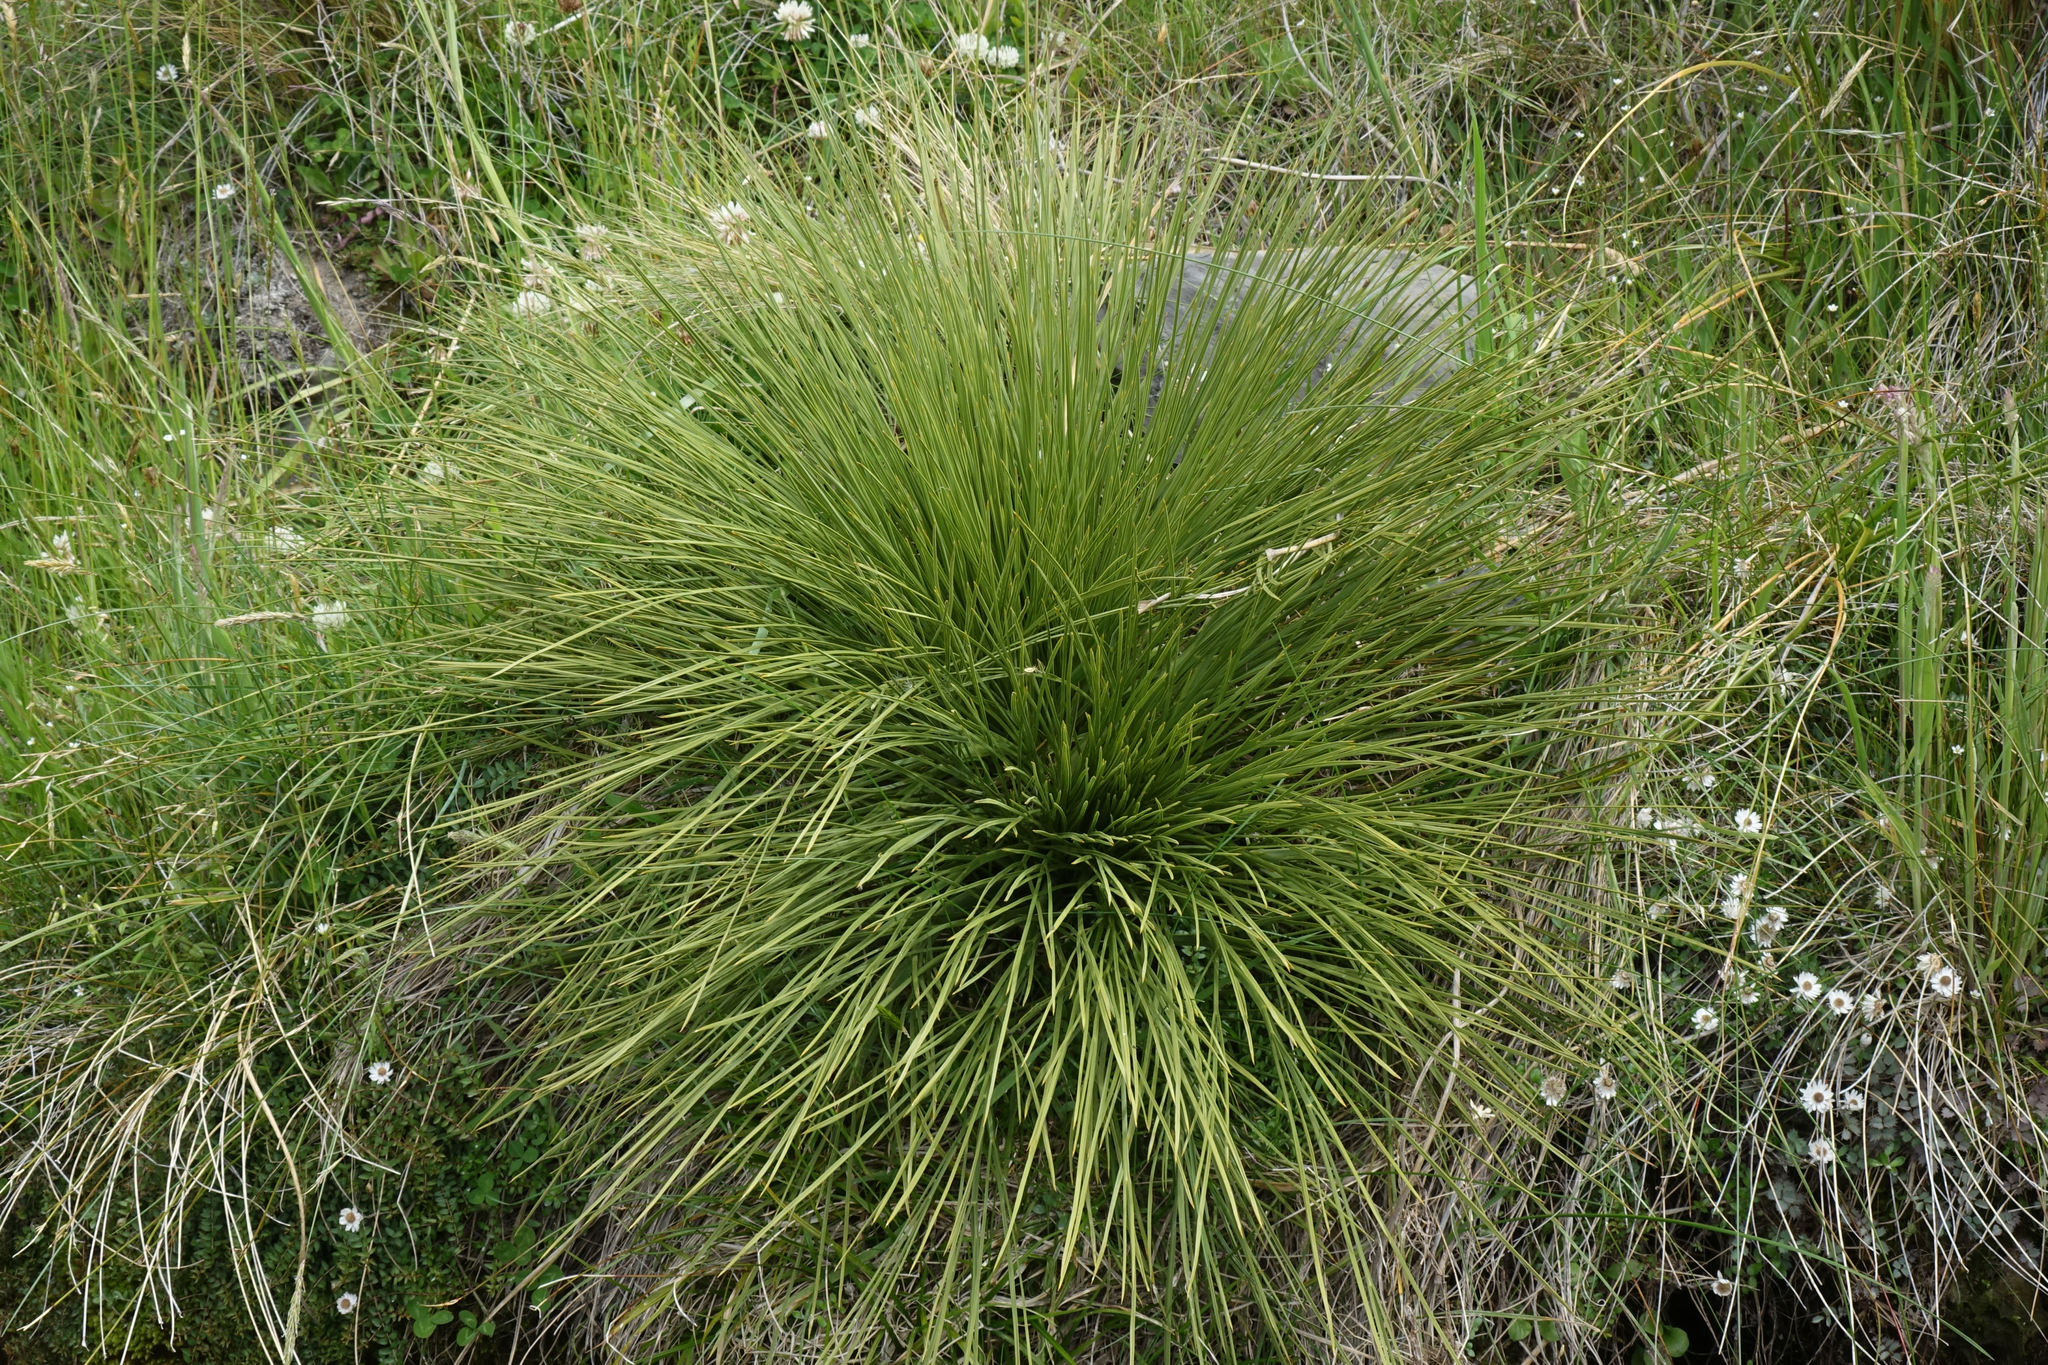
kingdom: Plantae
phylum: Tracheophyta
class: Magnoliopsida
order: Apiales
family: Apiaceae
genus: Aciphylla
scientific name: Aciphylla subflabellata
